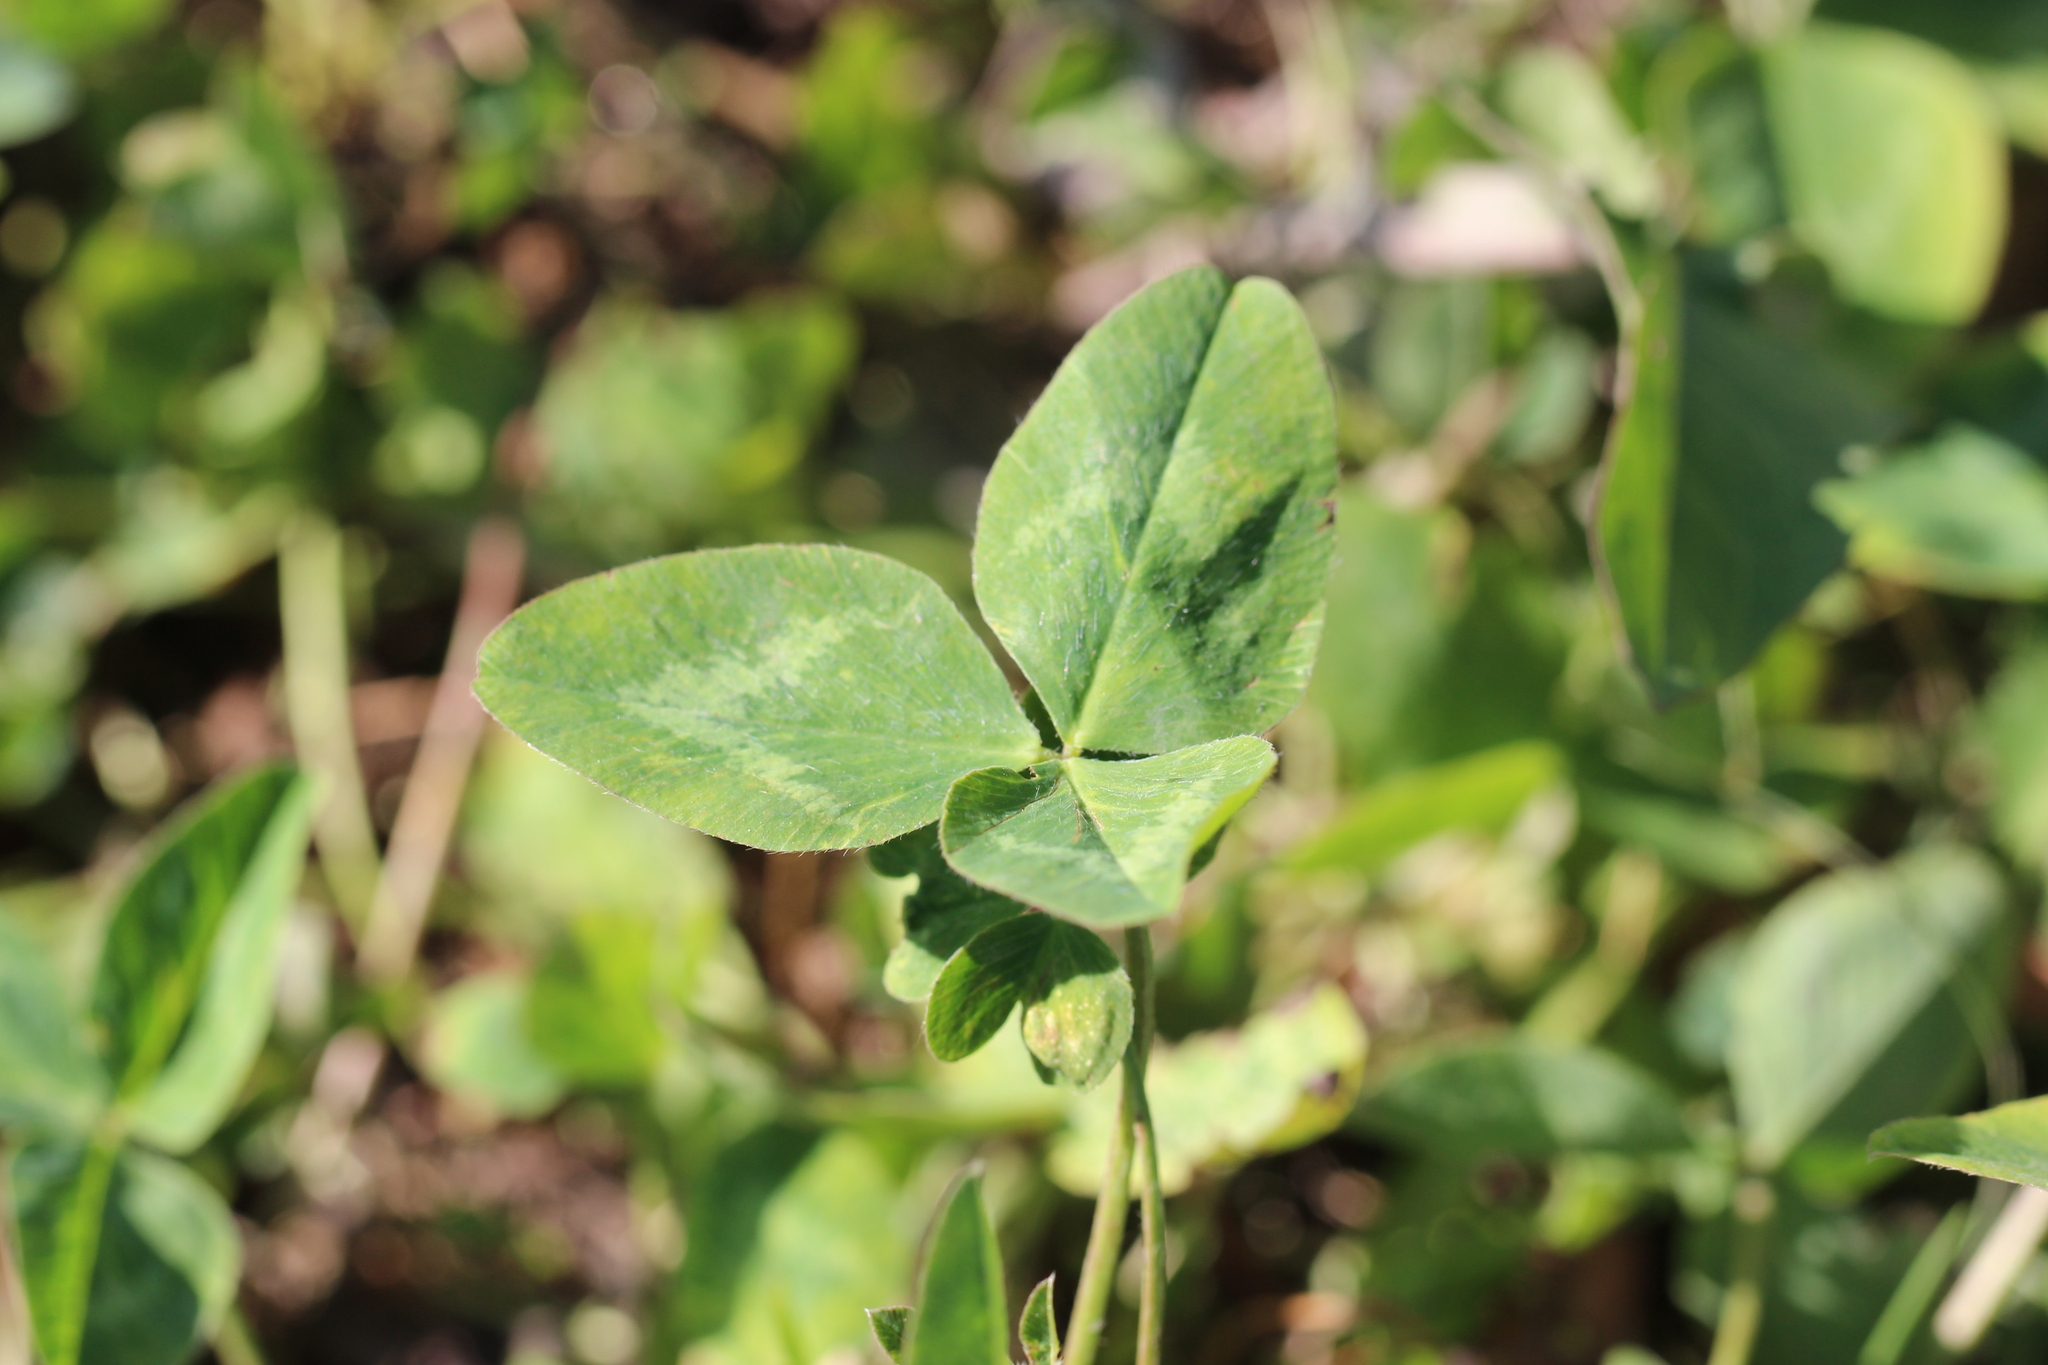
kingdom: Plantae
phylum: Tracheophyta
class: Magnoliopsida
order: Fabales
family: Fabaceae
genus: Trifolium
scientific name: Trifolium pratense
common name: Red clover
